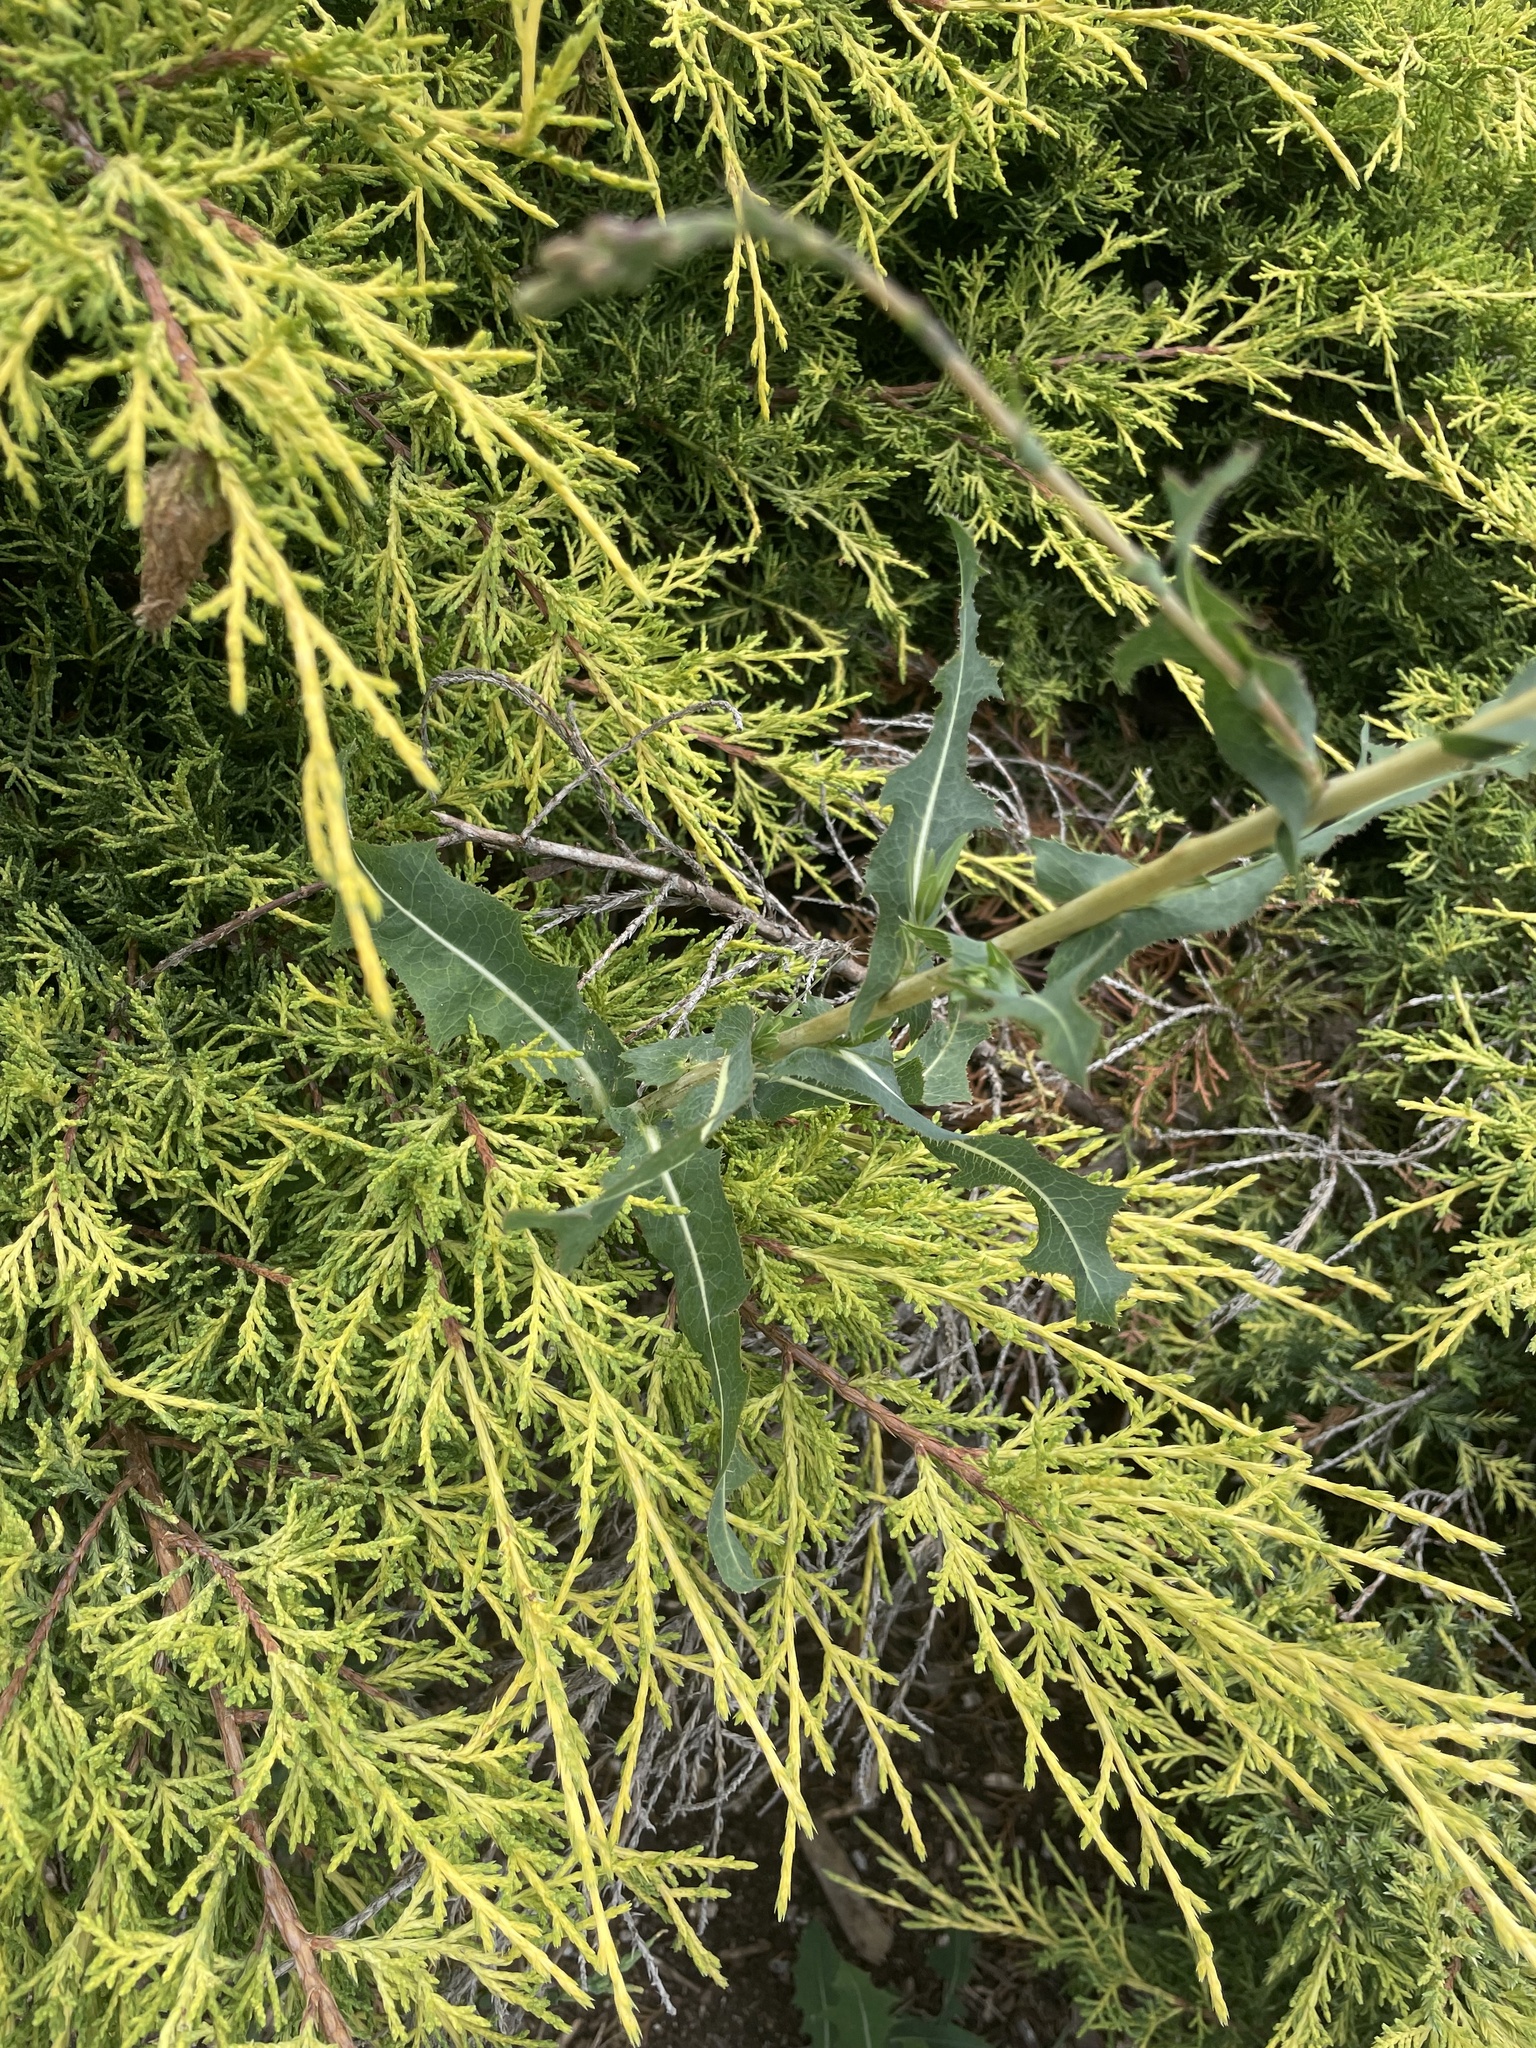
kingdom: Plantae
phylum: Tracheophyta
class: Magnoliopsida
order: Asterales
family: Asteraceae
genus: Lactuca
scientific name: Lactuca serriola
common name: Prickly lettuce
